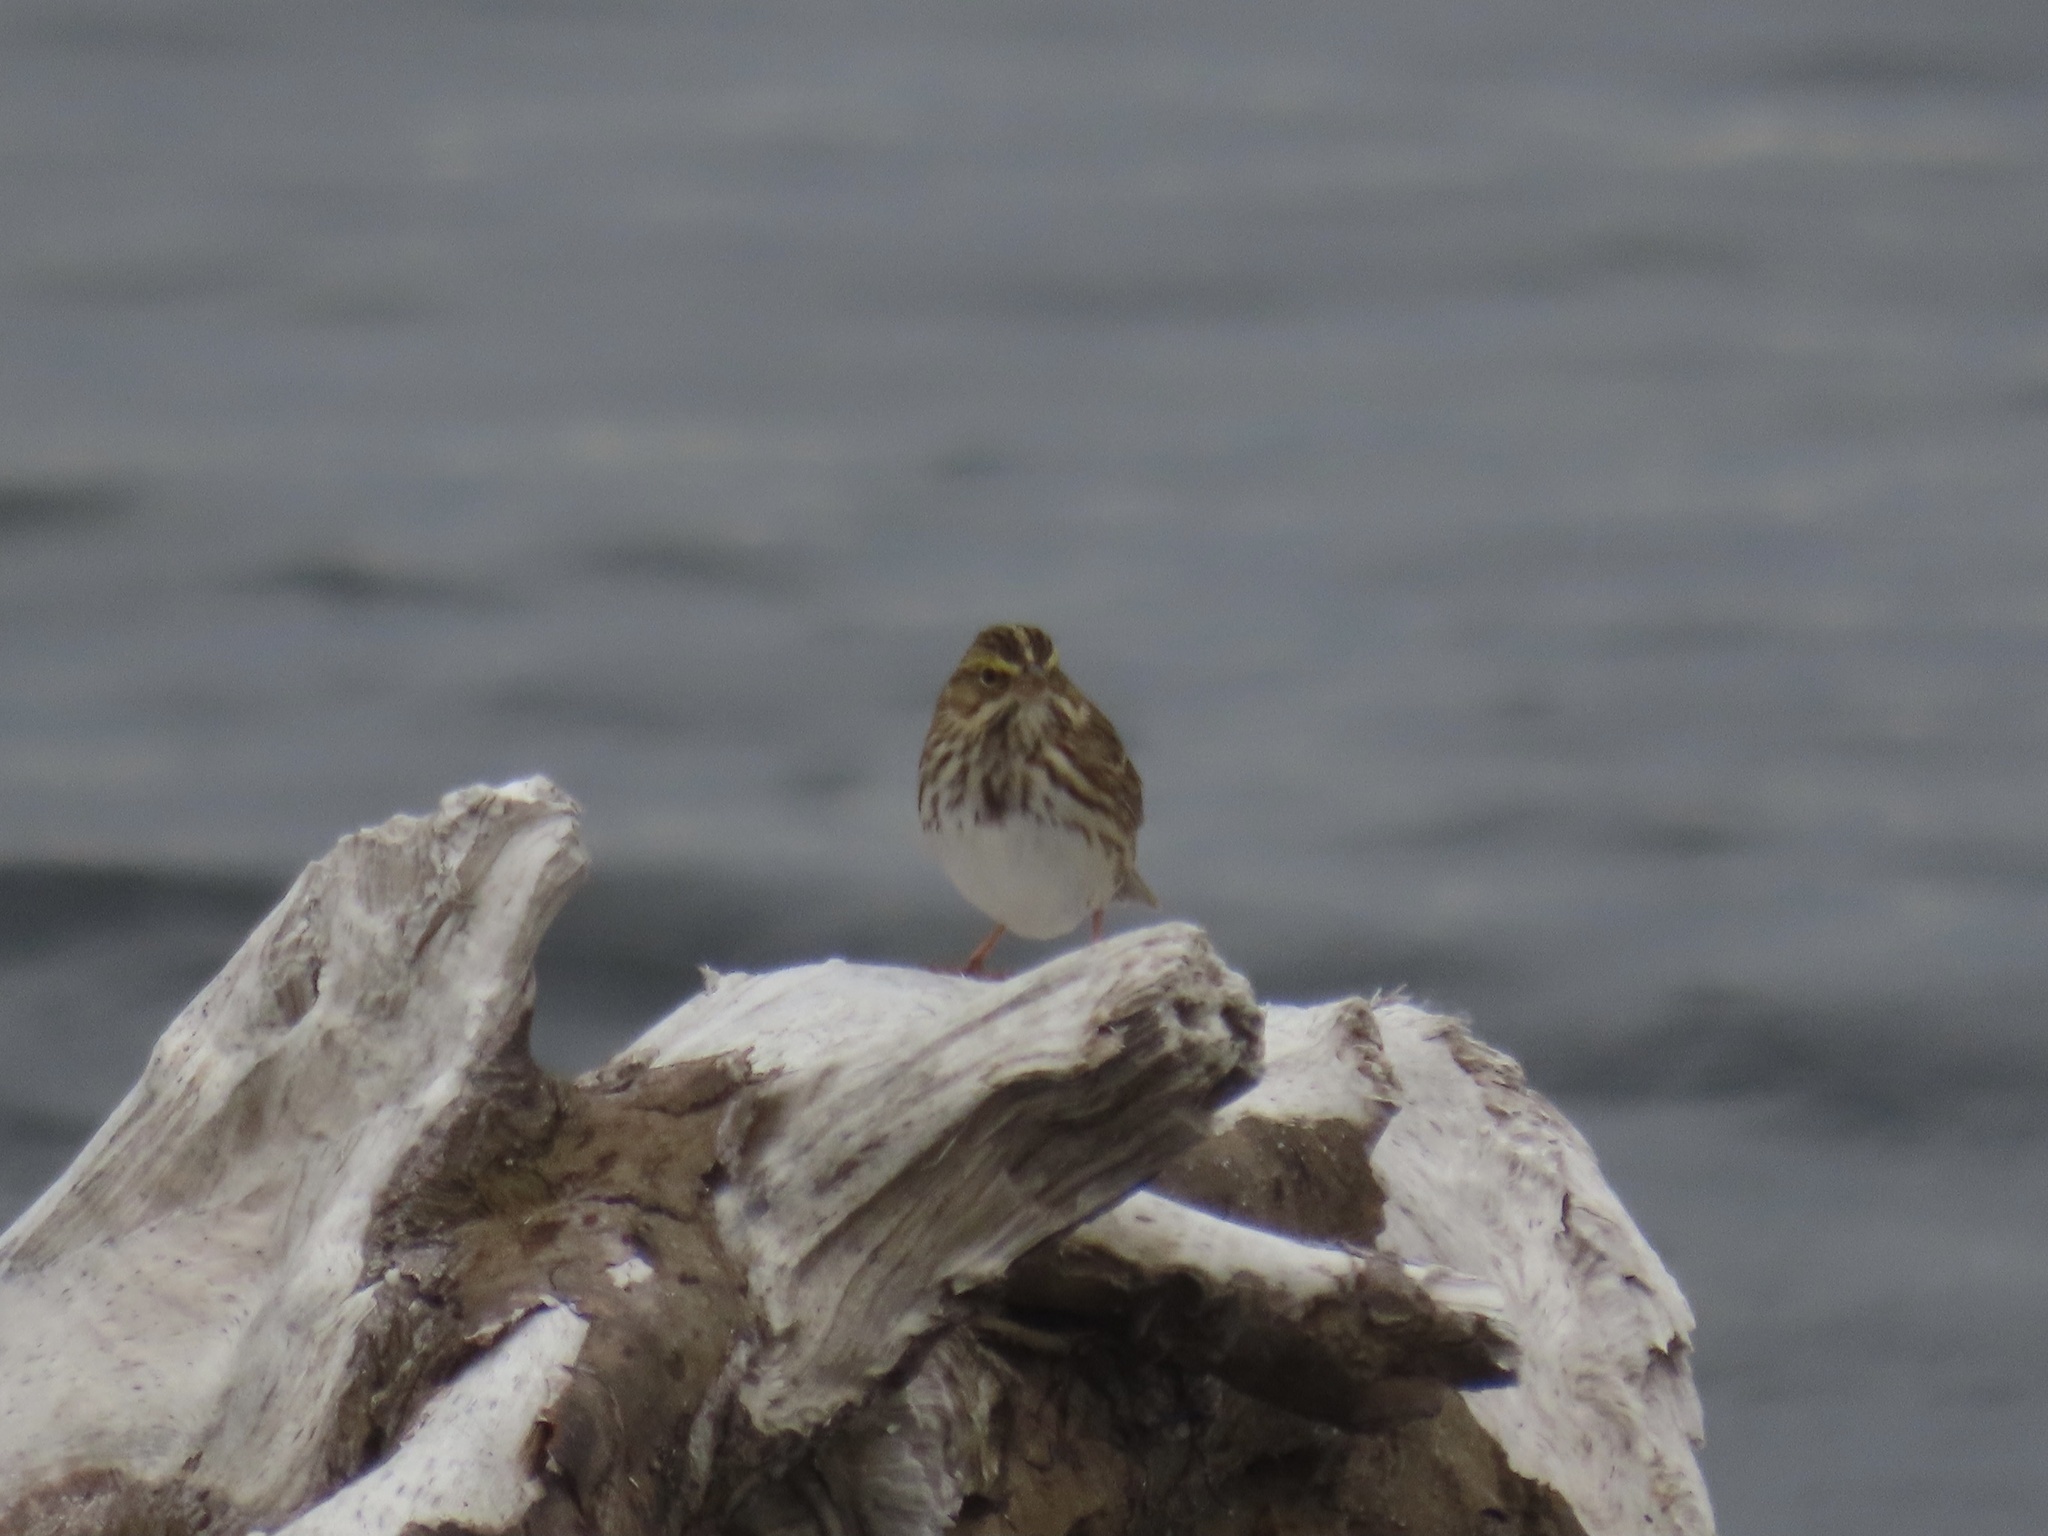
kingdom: Animalia
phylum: Chordata
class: Aves
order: Passeriformes
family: Passerellidae
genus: Passerculus
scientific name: Passerculus sandwichensis
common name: Savannah sparrow
